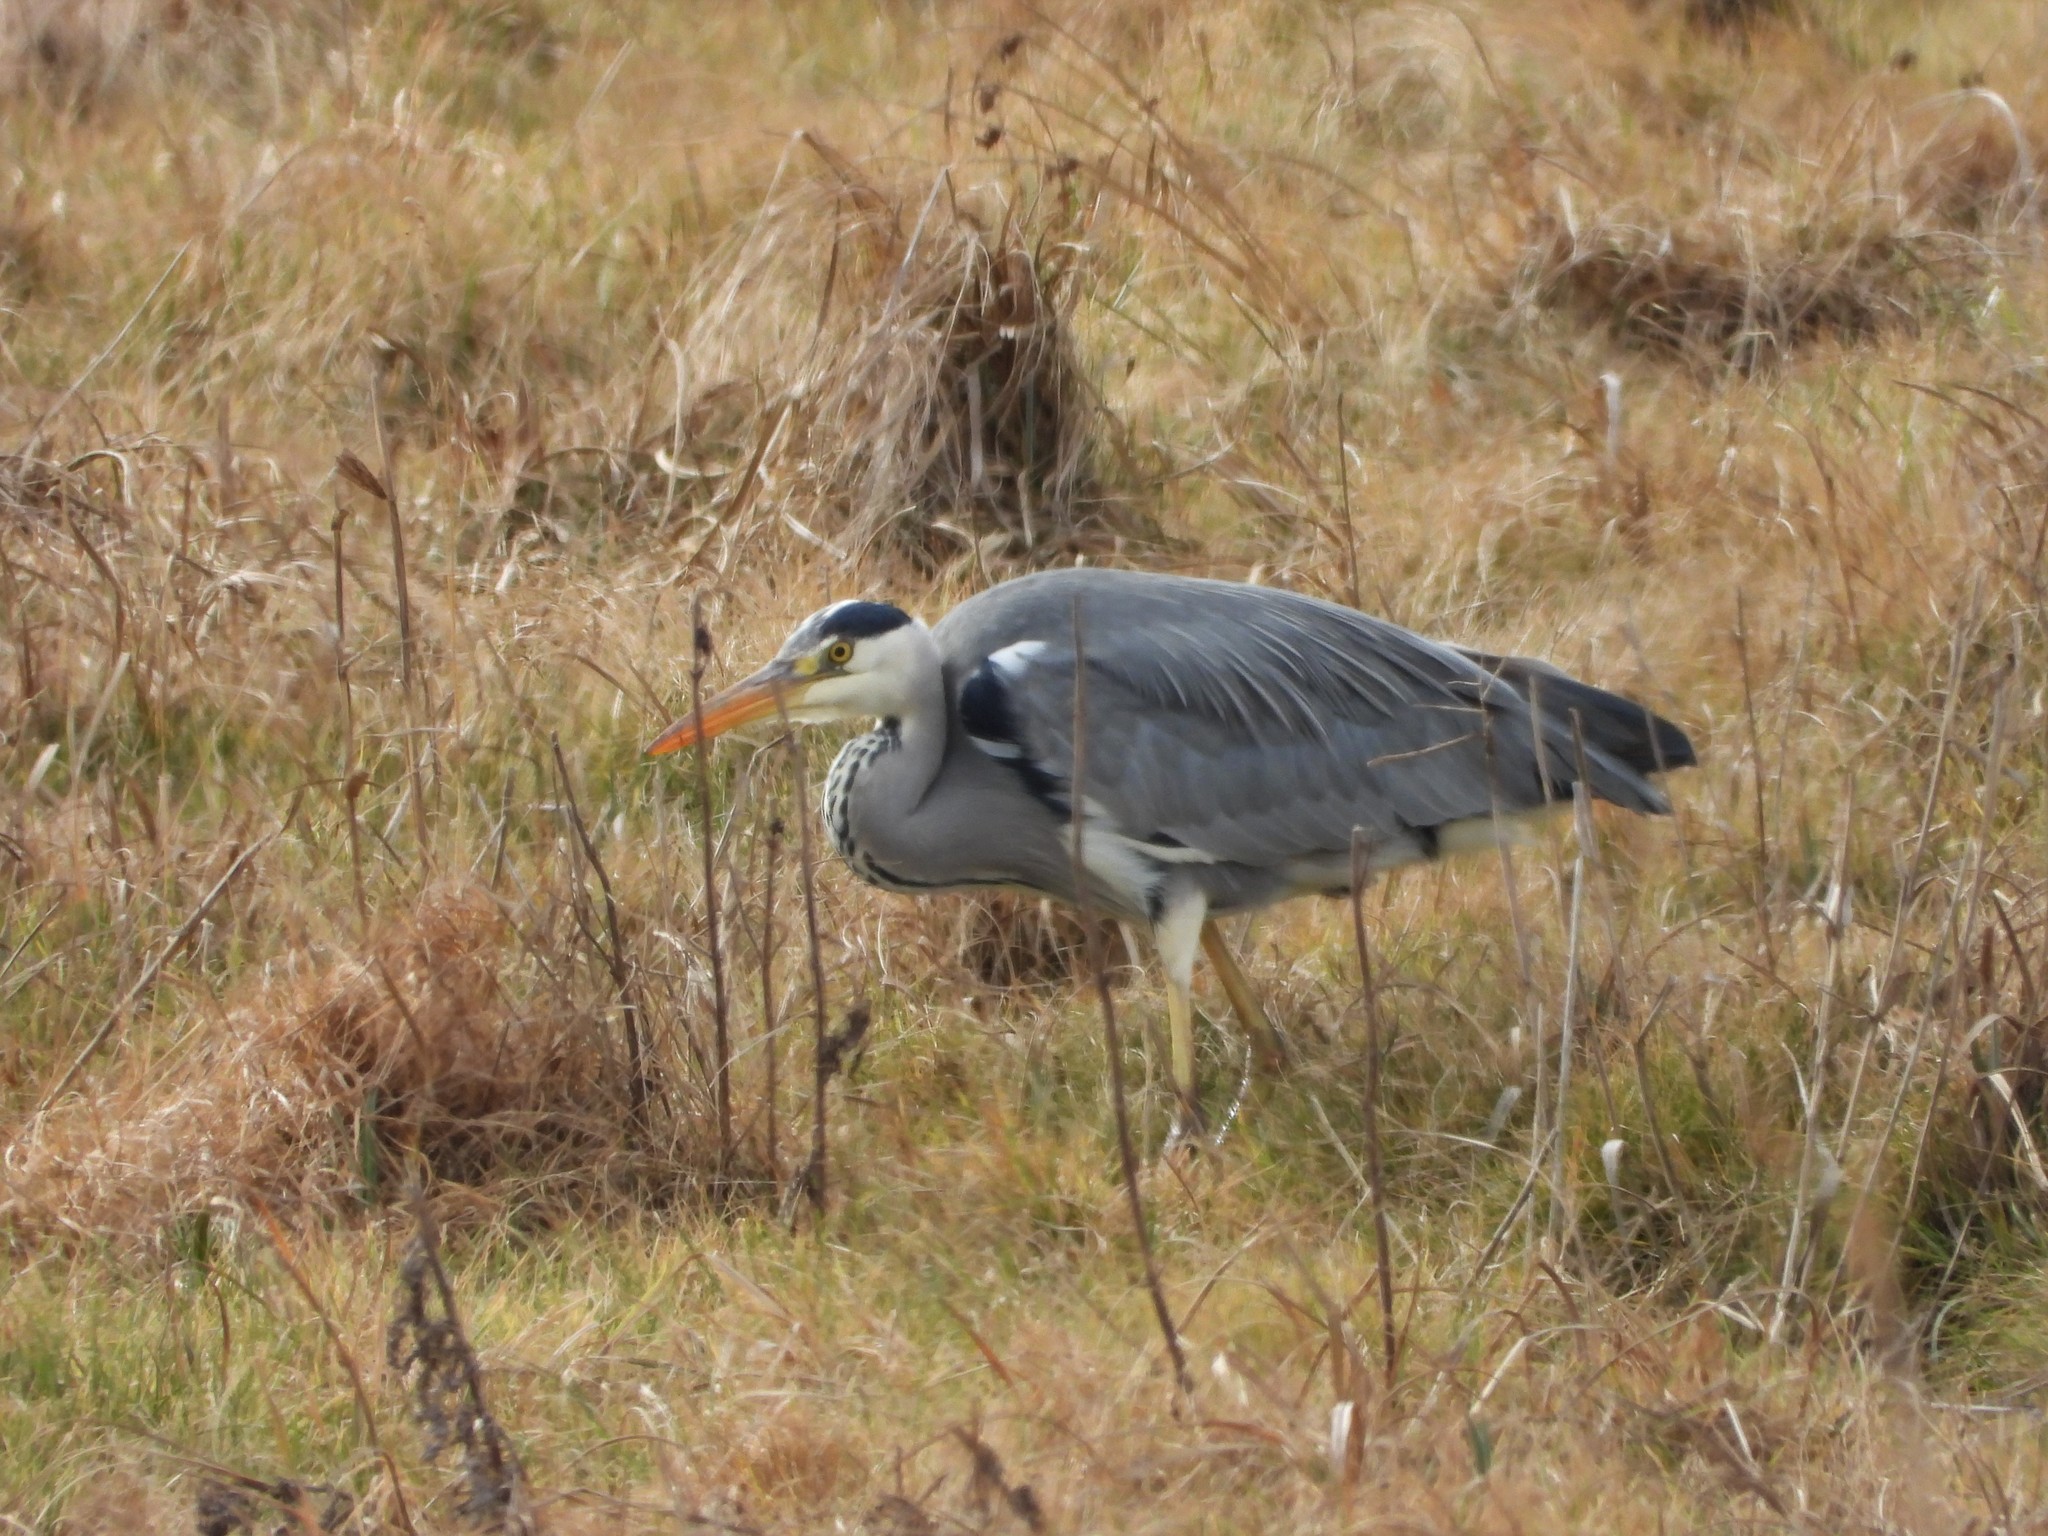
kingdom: Animalia
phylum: Chordata
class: Aves
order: Pelecaniformes
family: Ardeidae
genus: Ardea
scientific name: Ardea cinerea
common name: Grey heron
